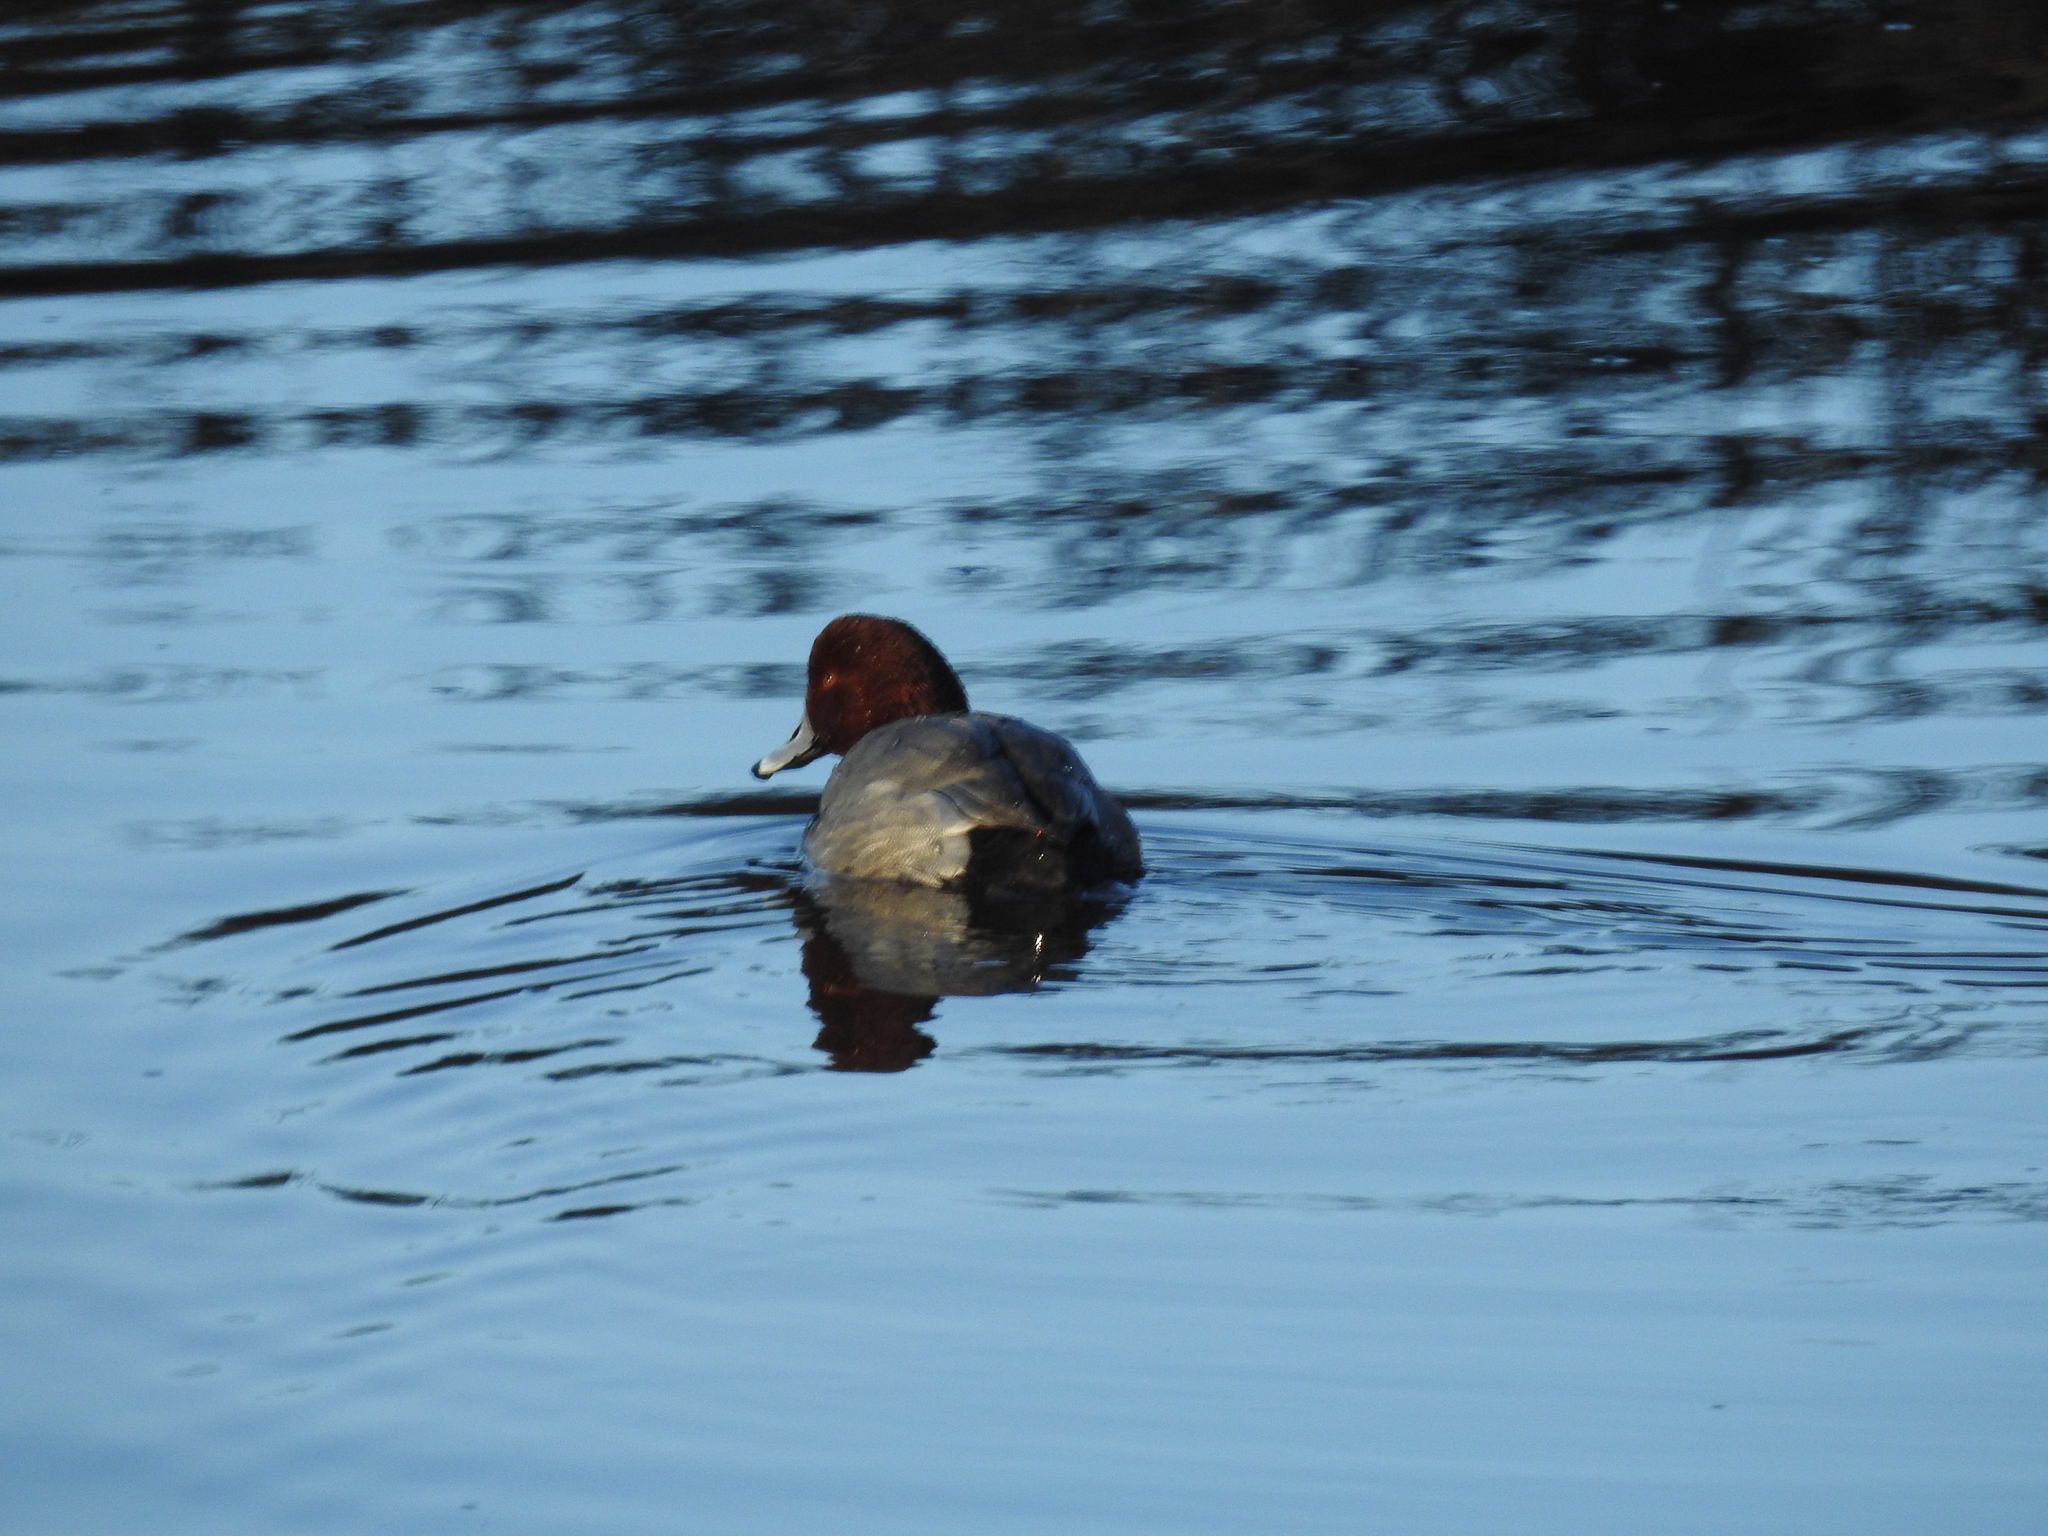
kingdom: Animalia
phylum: Chordata
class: Aves
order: Anseriformes
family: Anatidae
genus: Aythya
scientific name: Aythya americana
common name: Redhead
